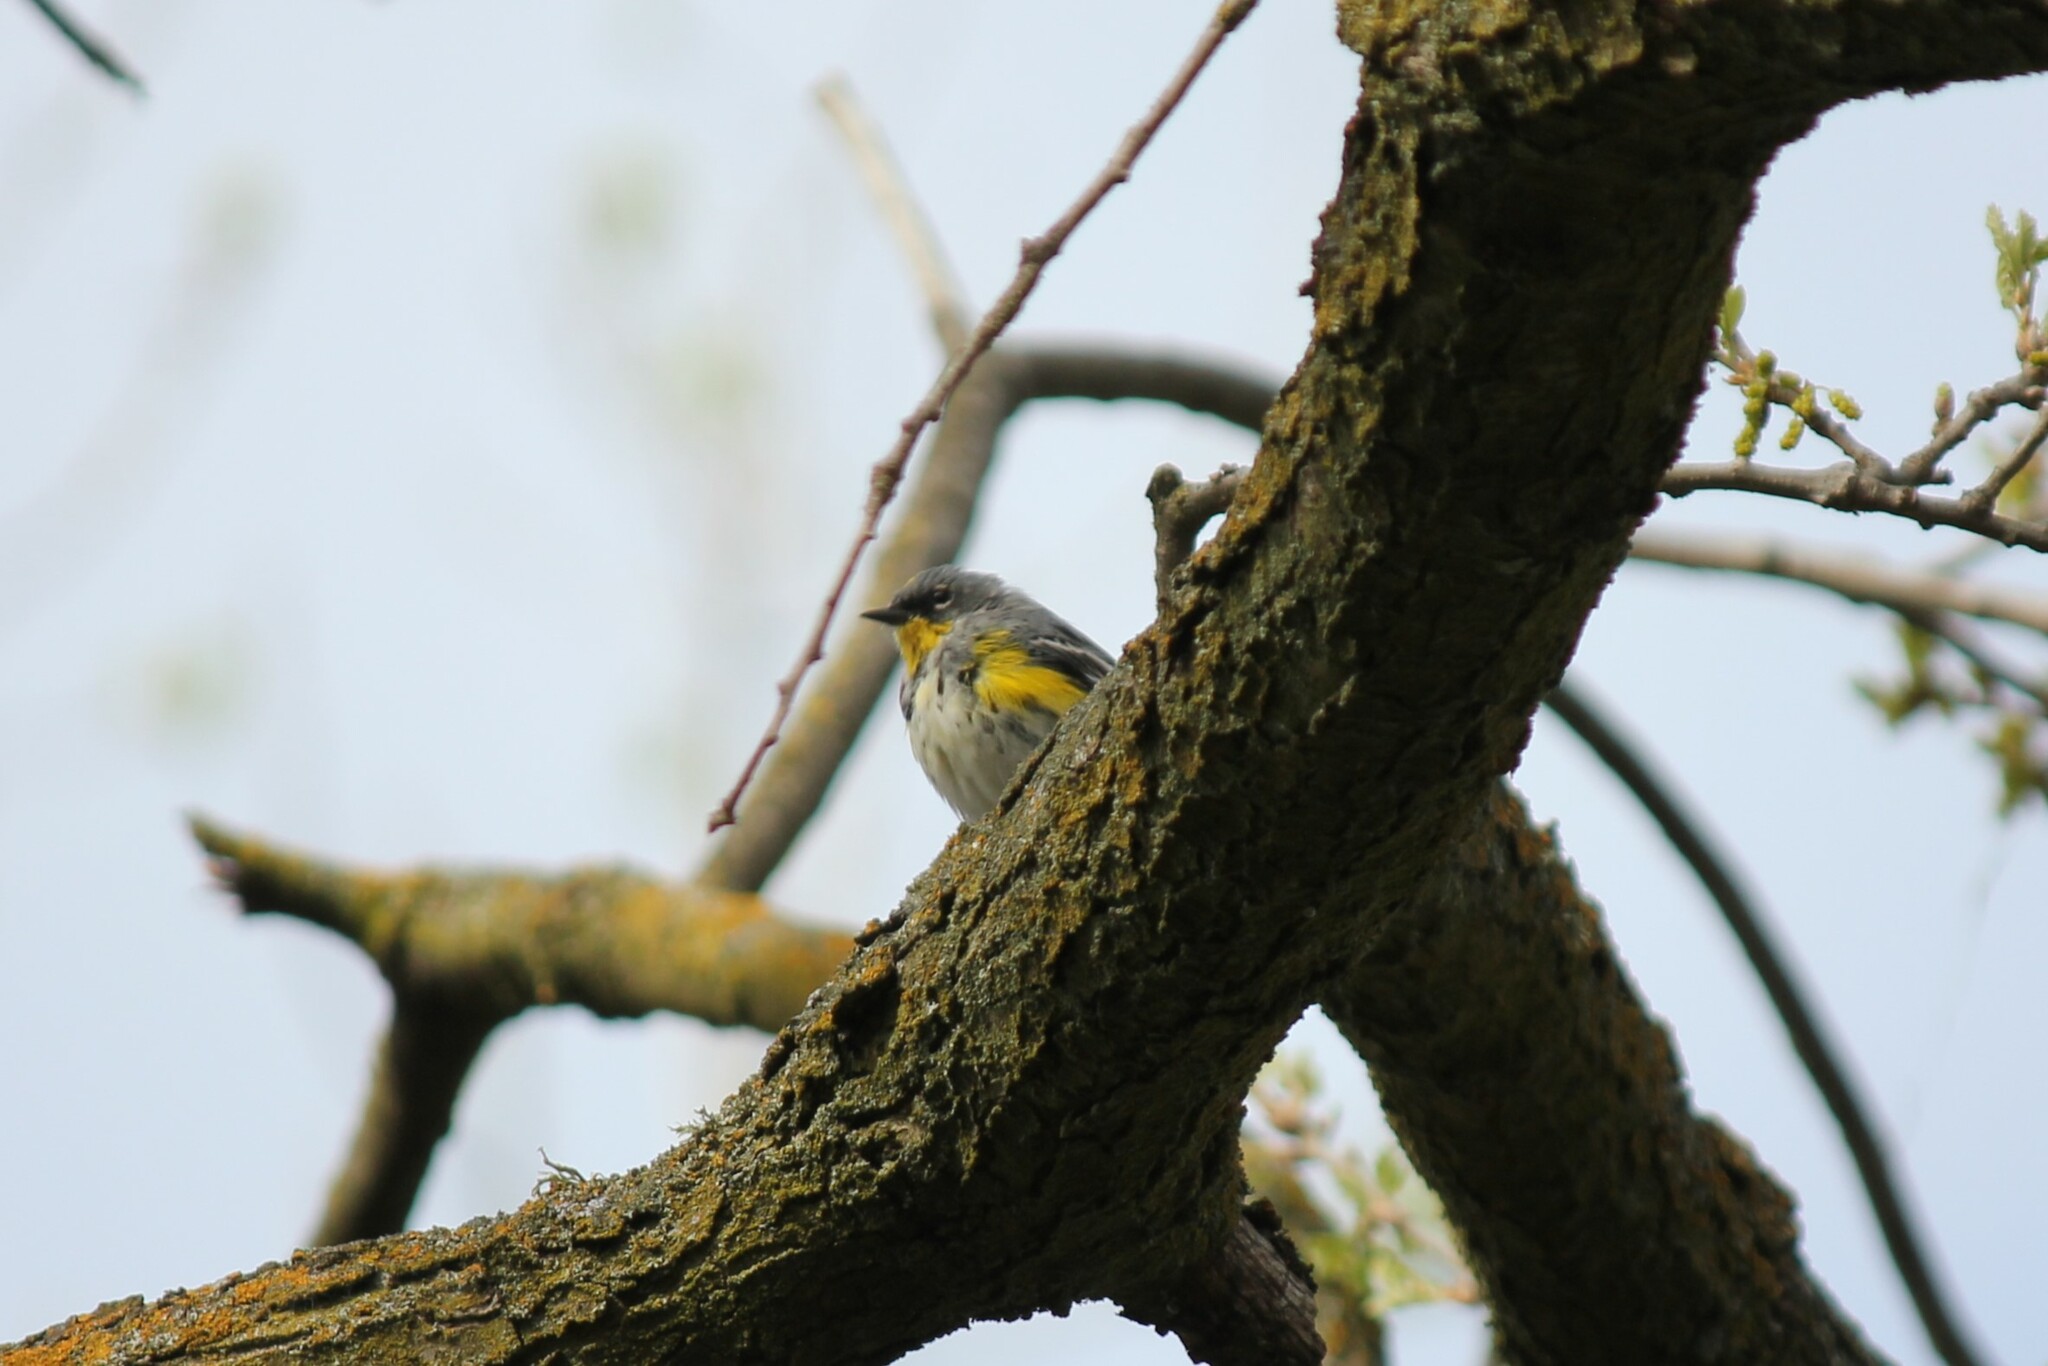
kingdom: Animalia
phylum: Chordata
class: Aves
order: Passeriformes
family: Parulidae
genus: Setophaga
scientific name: Setophaga coronata
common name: Myrtle warbler
